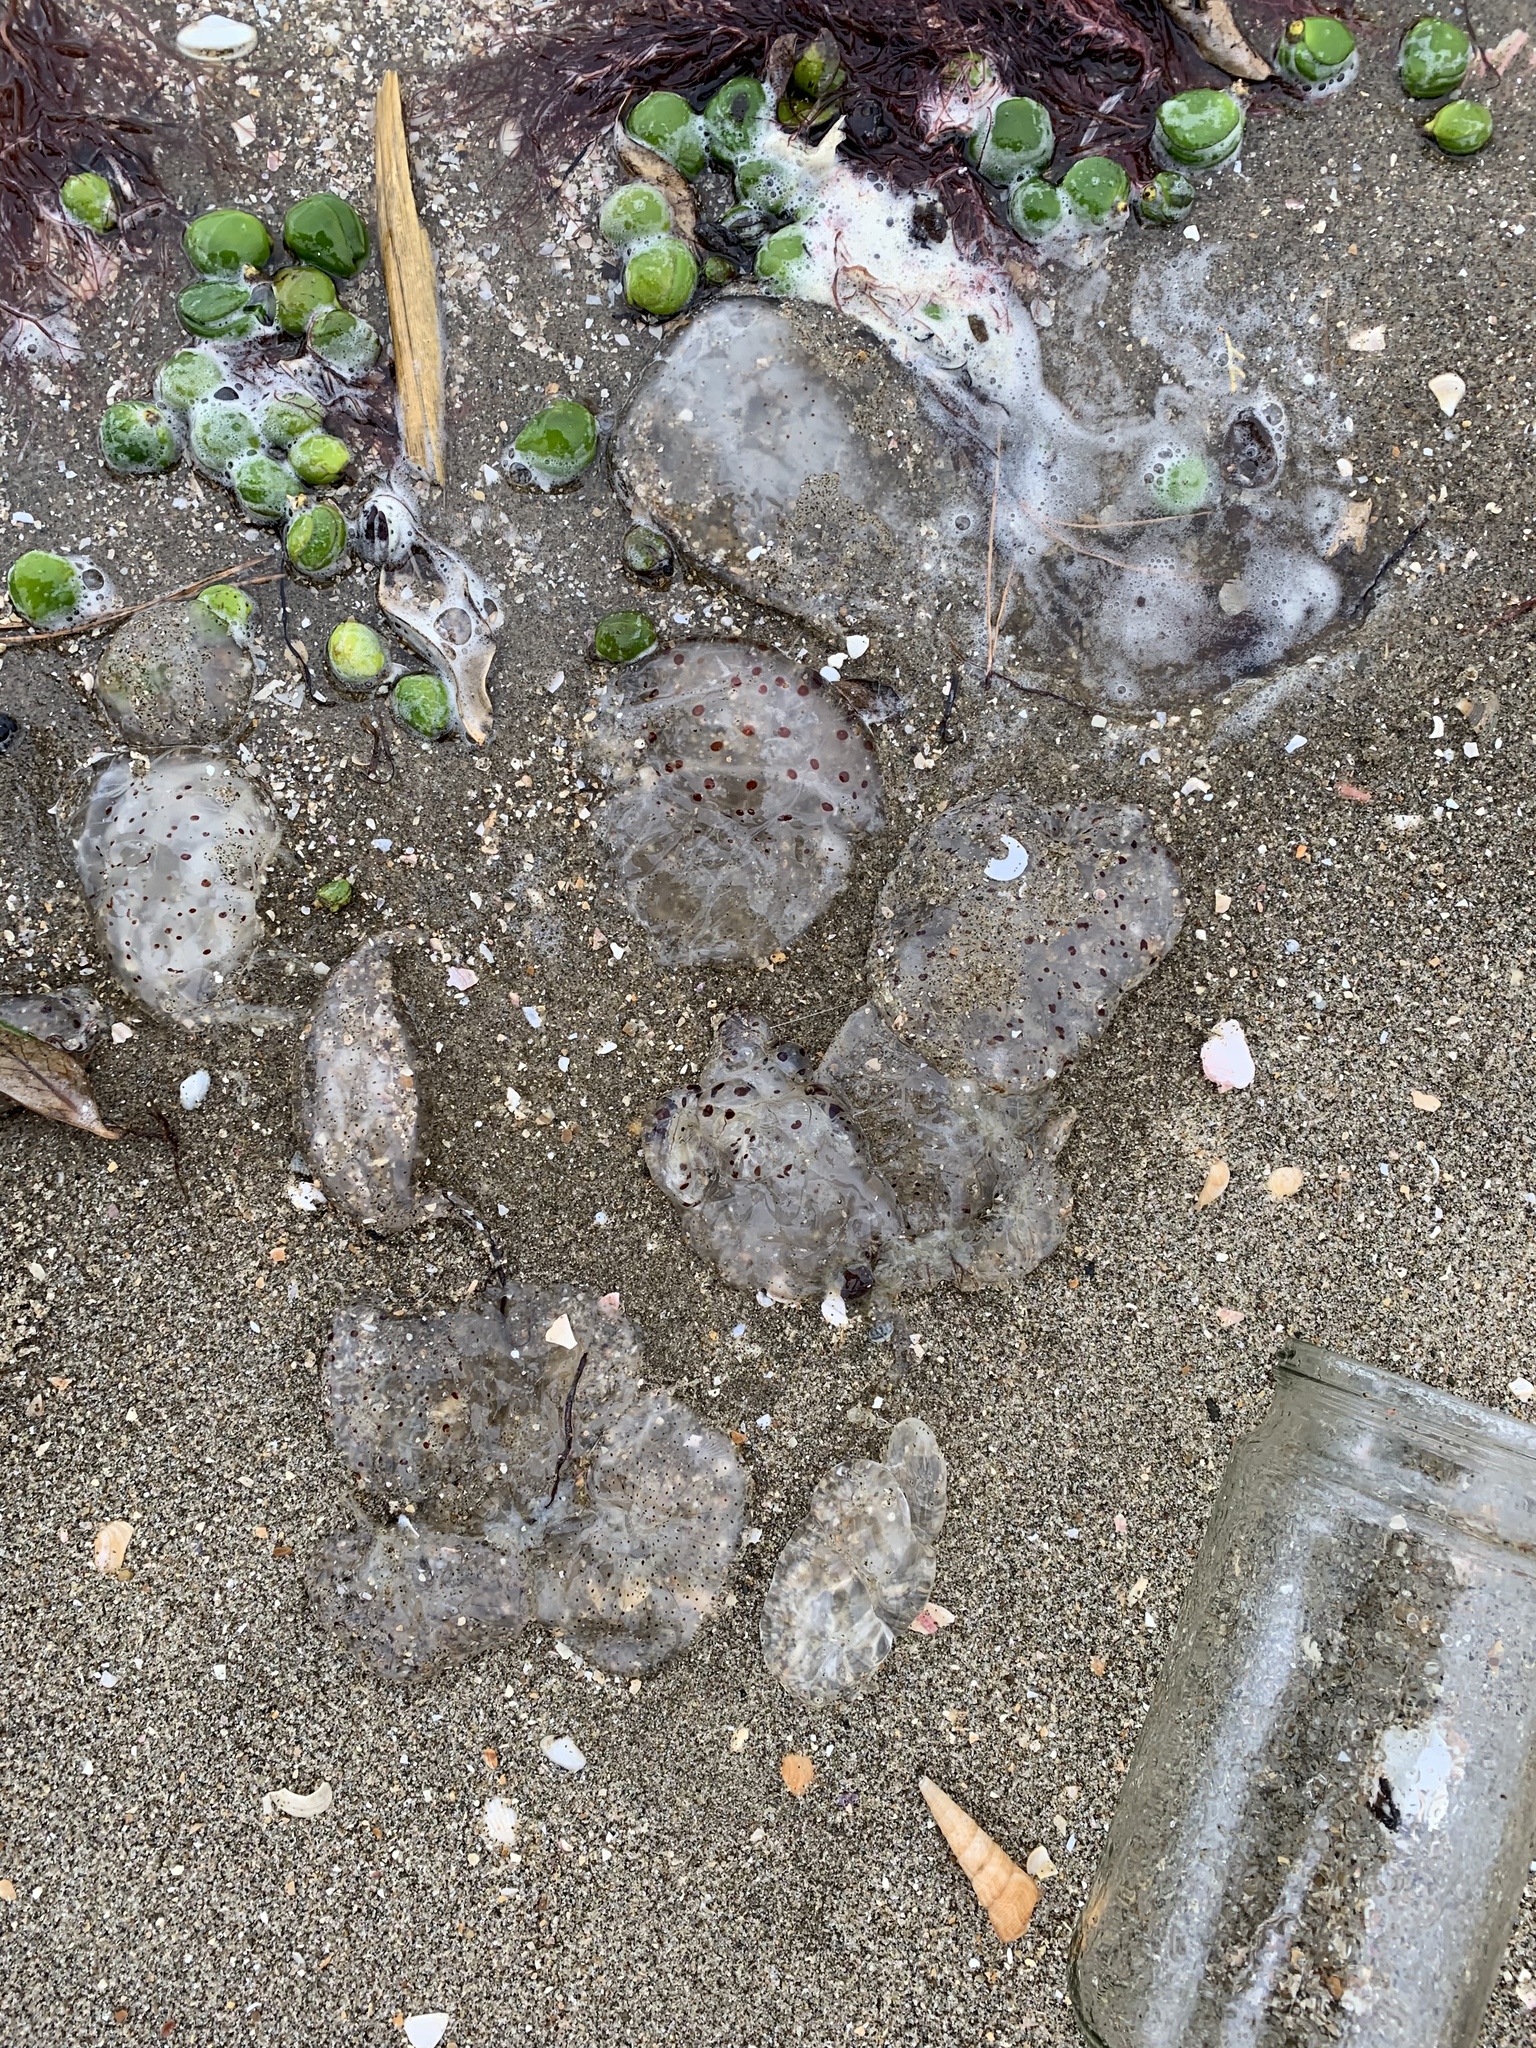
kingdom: Animalia
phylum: Cnidaria
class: Scyphozoa
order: Semaeostomeae
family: Cyaneidae
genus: Desmonema
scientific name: Desmonema gaudichaudi
